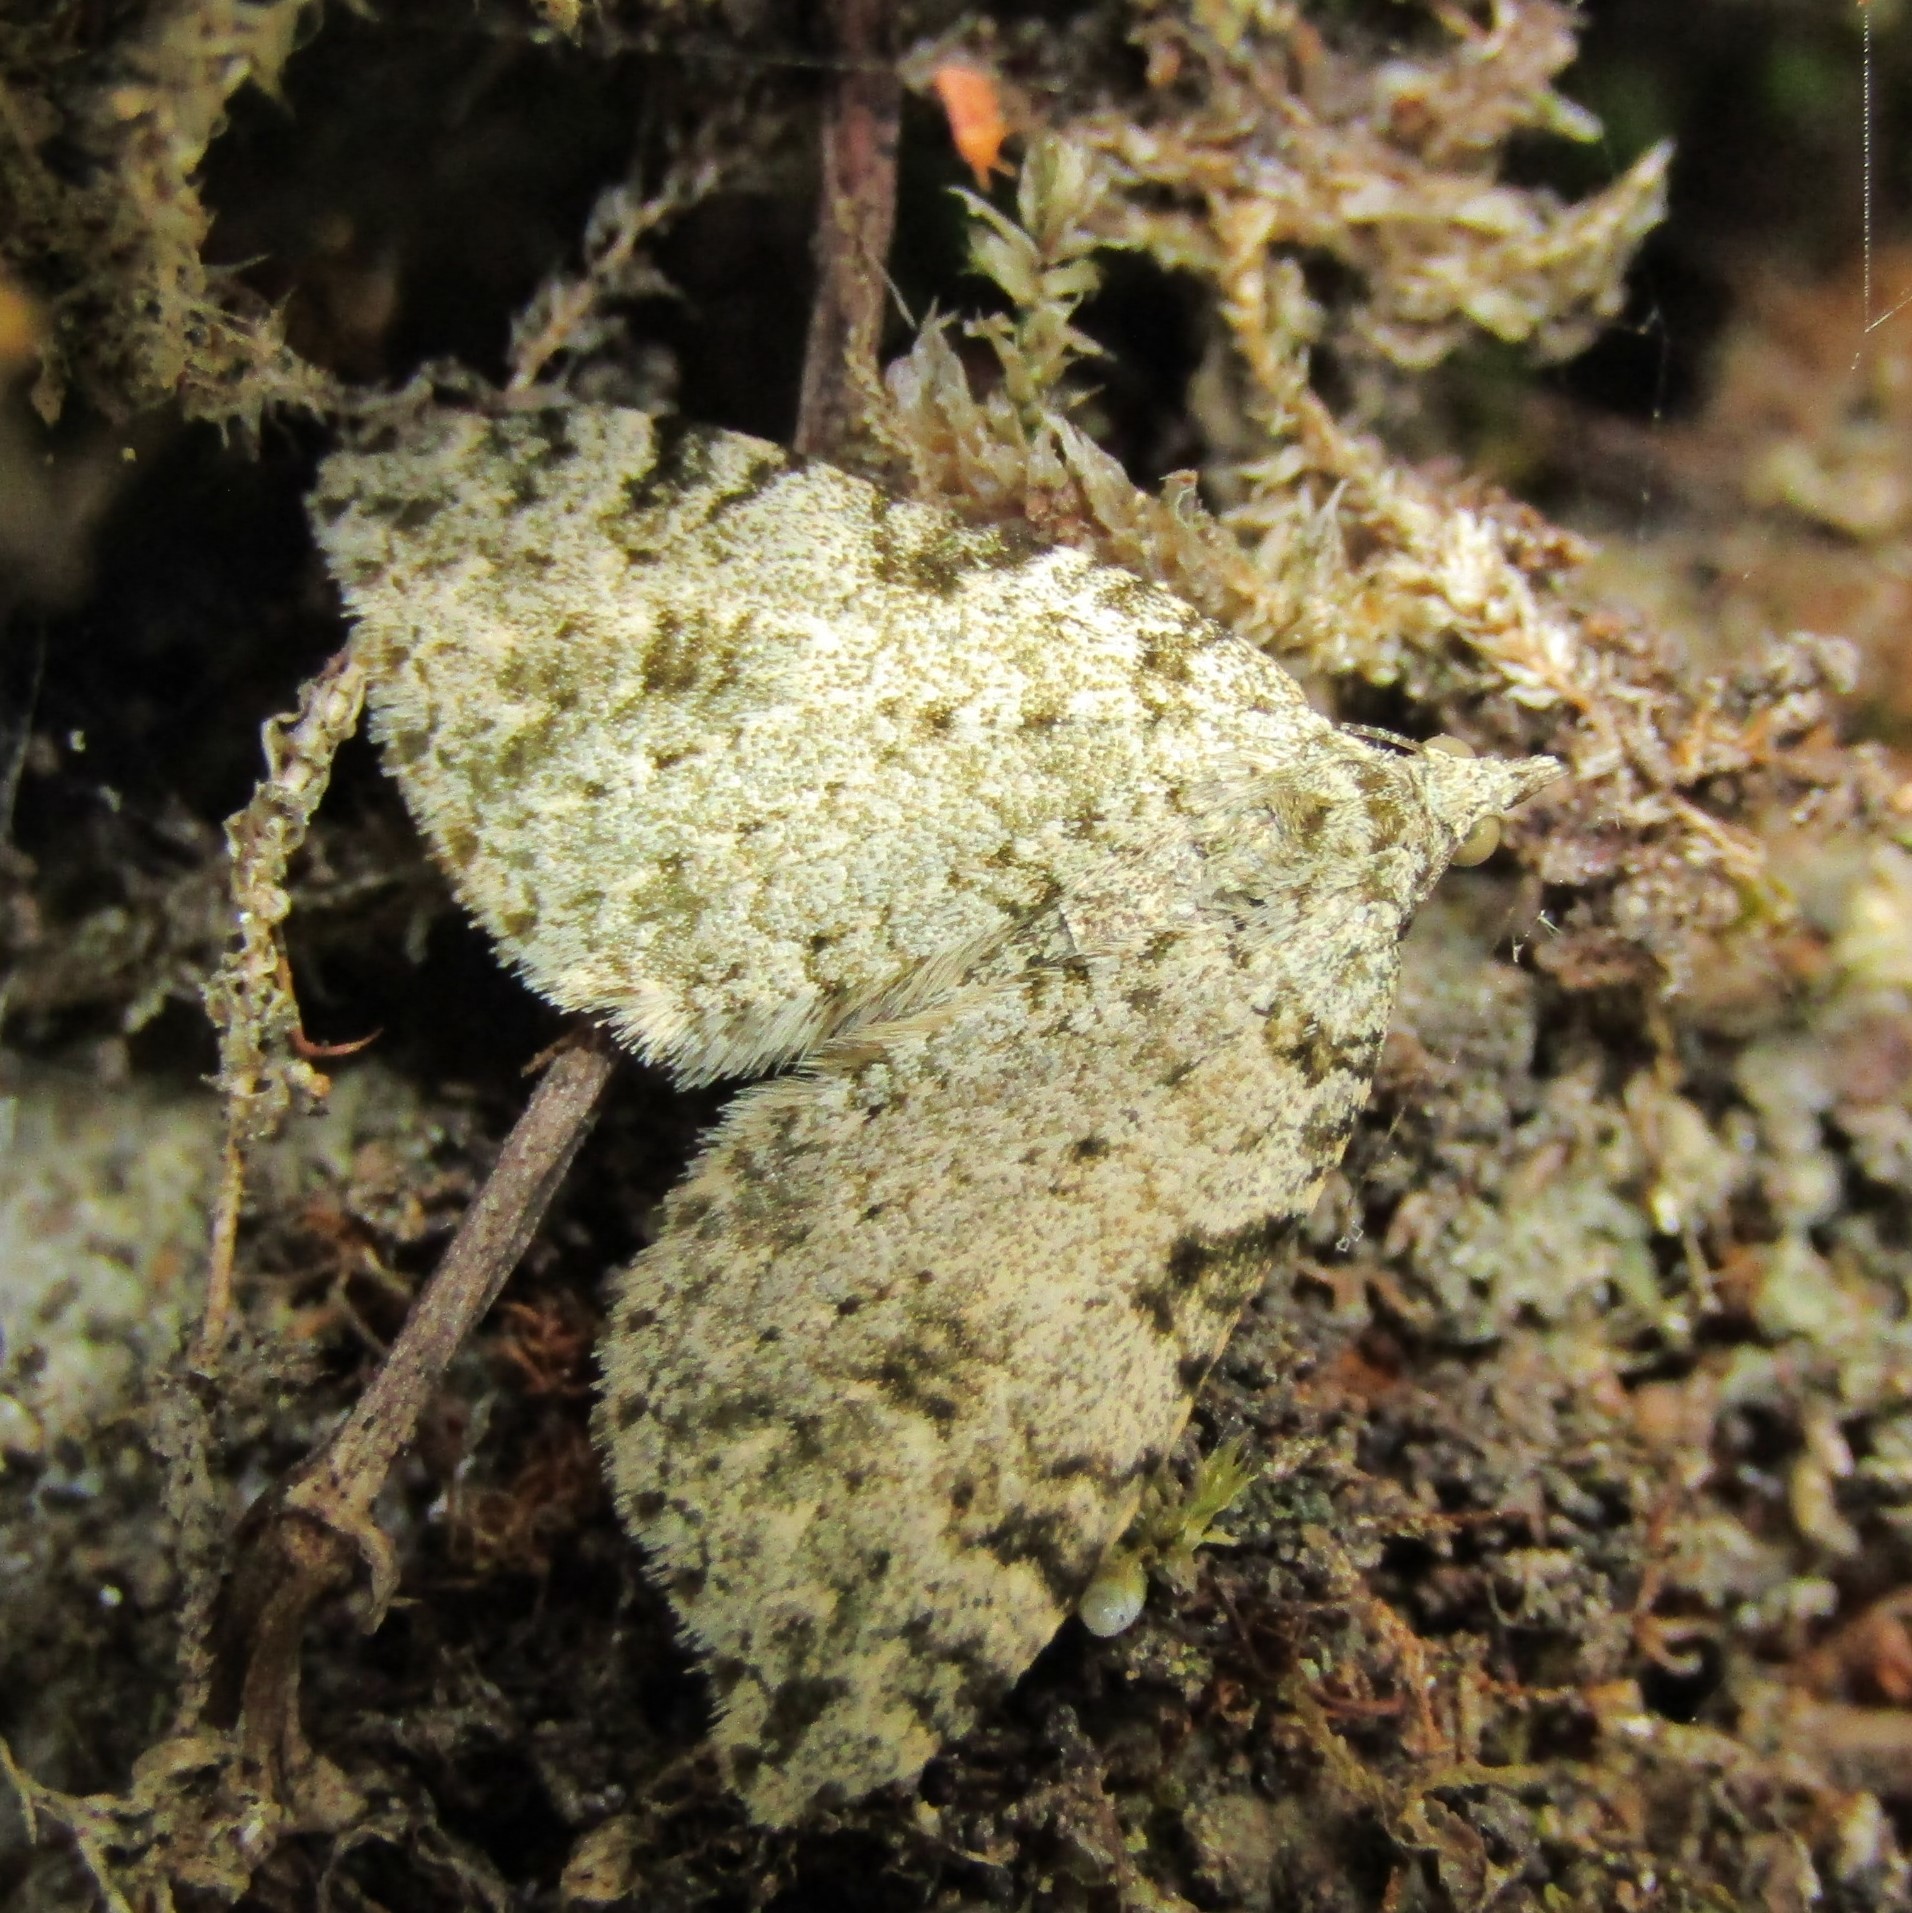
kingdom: Animalia
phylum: Arthropoda
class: Insecta
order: Lepidoptera
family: Geometridae
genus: Helastia
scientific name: Helastia cinerearia
